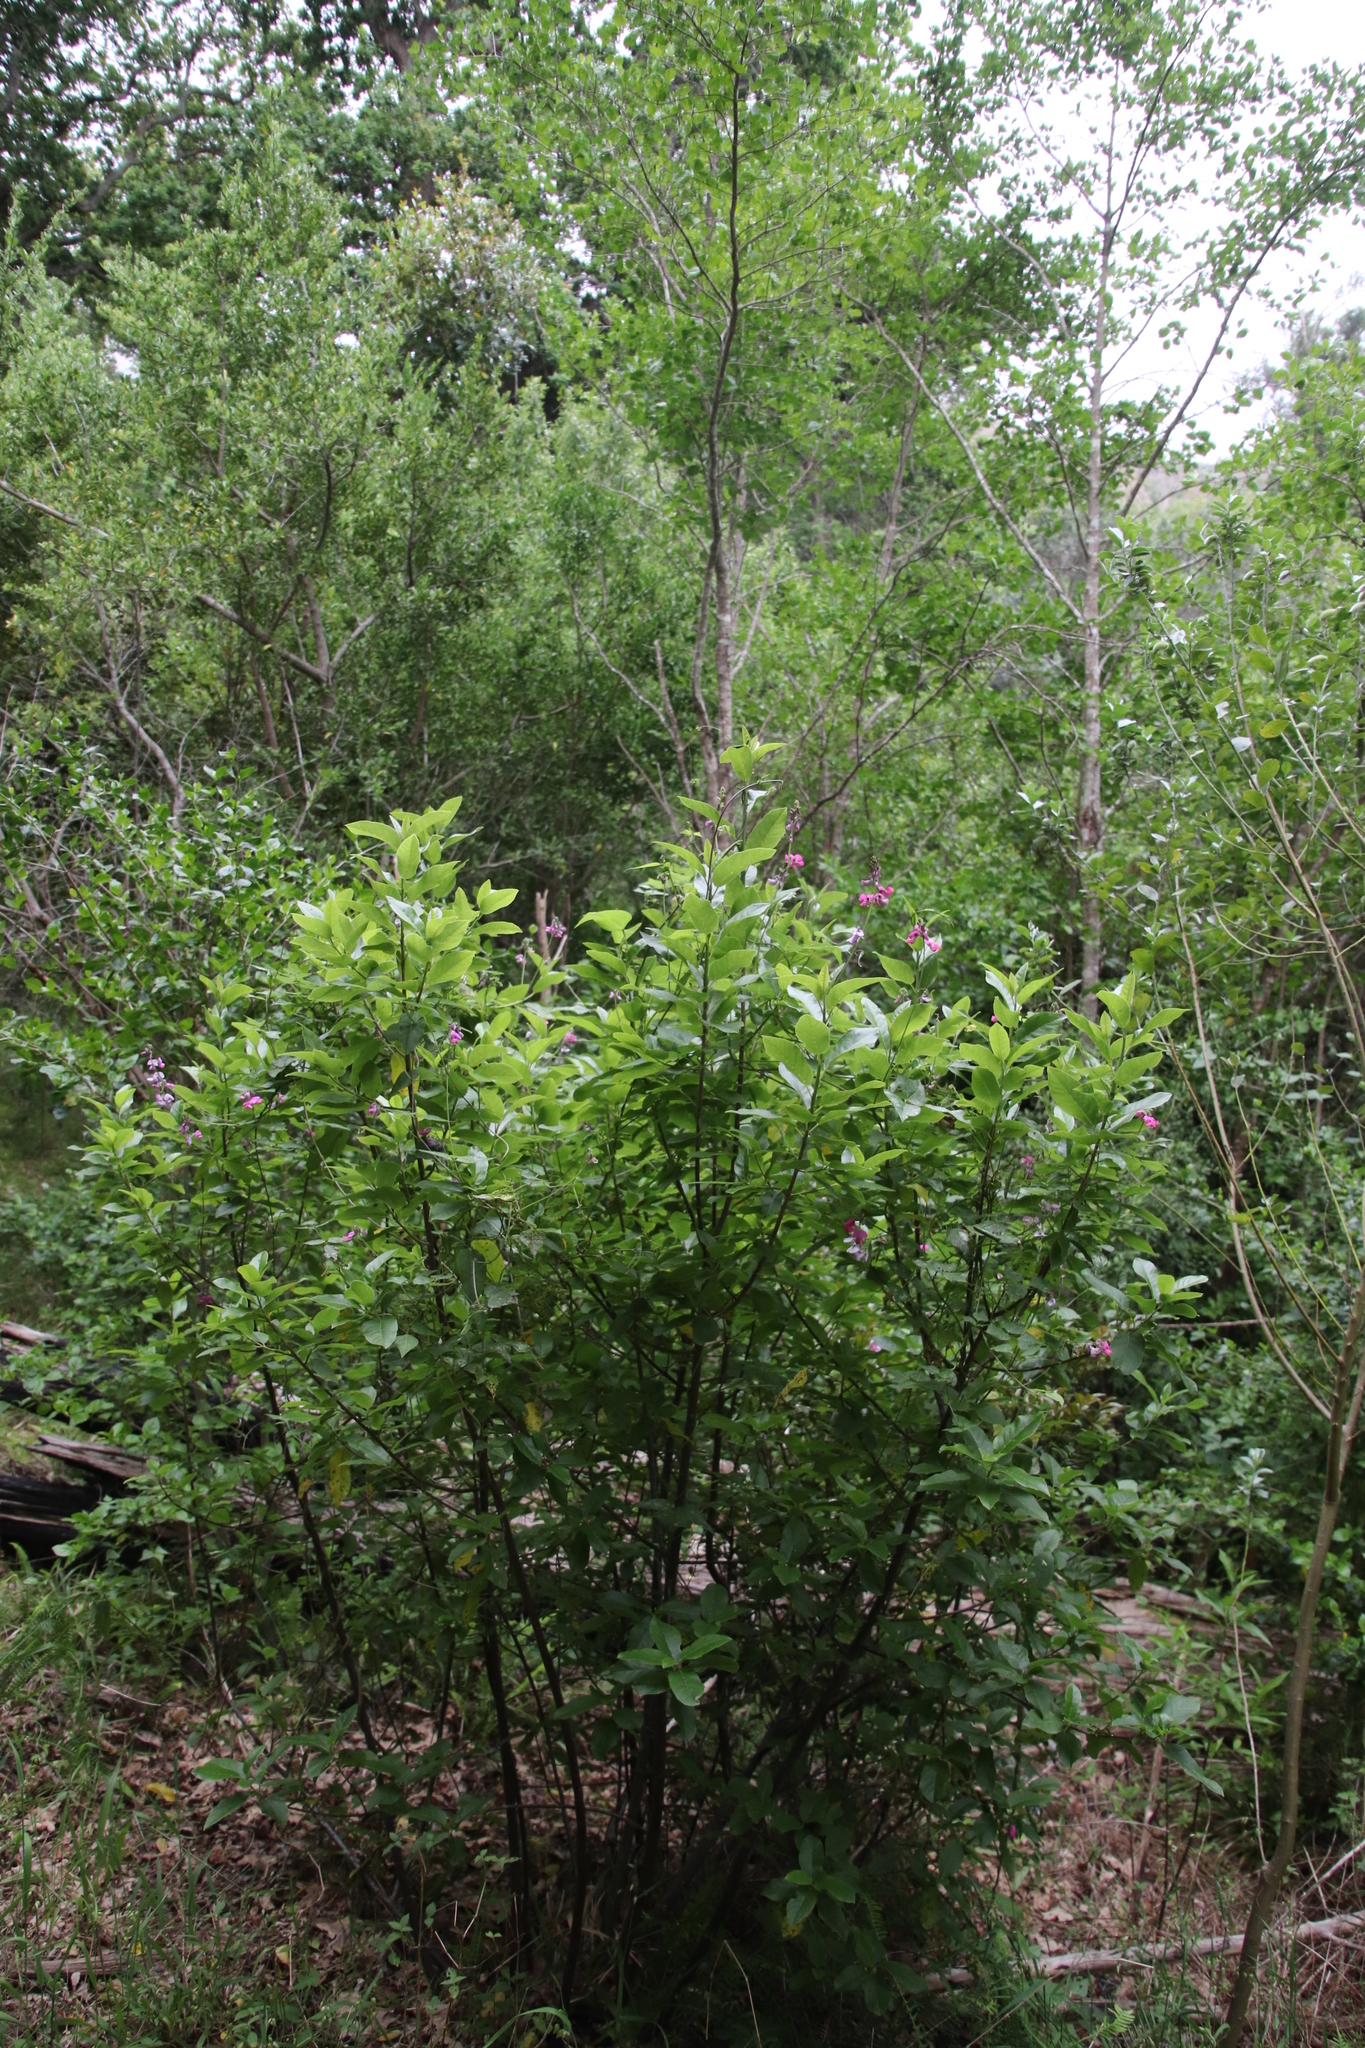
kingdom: Plantae
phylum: Tracheophyta
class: Magnoliopsida
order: Malpighiales
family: Achariaceae
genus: Kiggelaria
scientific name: Kiggelaria africana
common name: Wild peach
